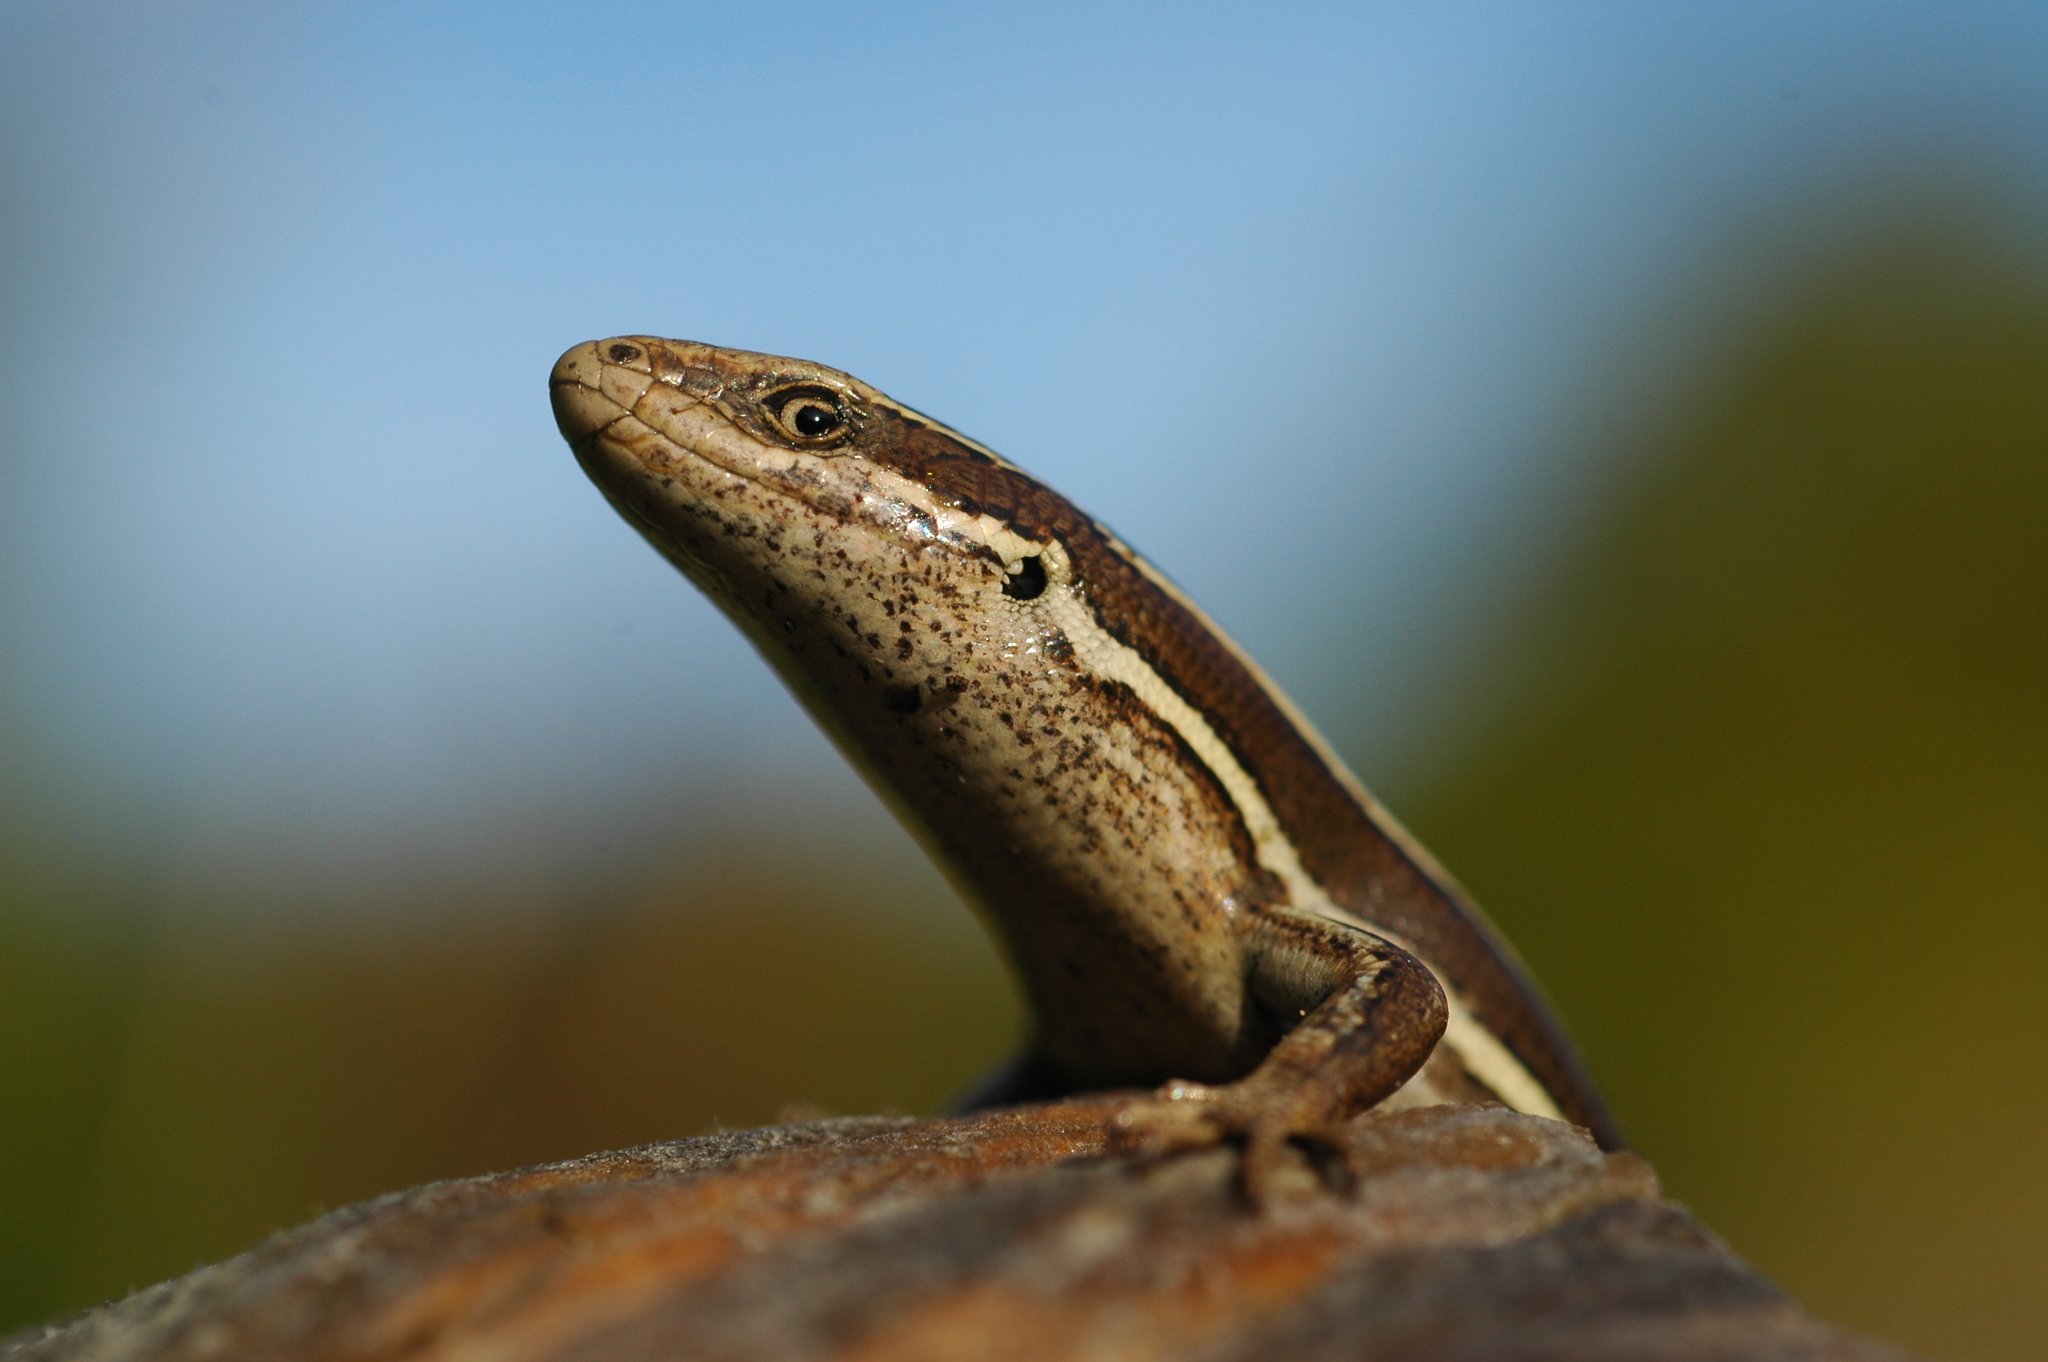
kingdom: Animalia
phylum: Chordata
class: Squamata
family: Scincidae
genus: Oligosoma
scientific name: Oligosoma maccanni
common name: Mccann’s skink
